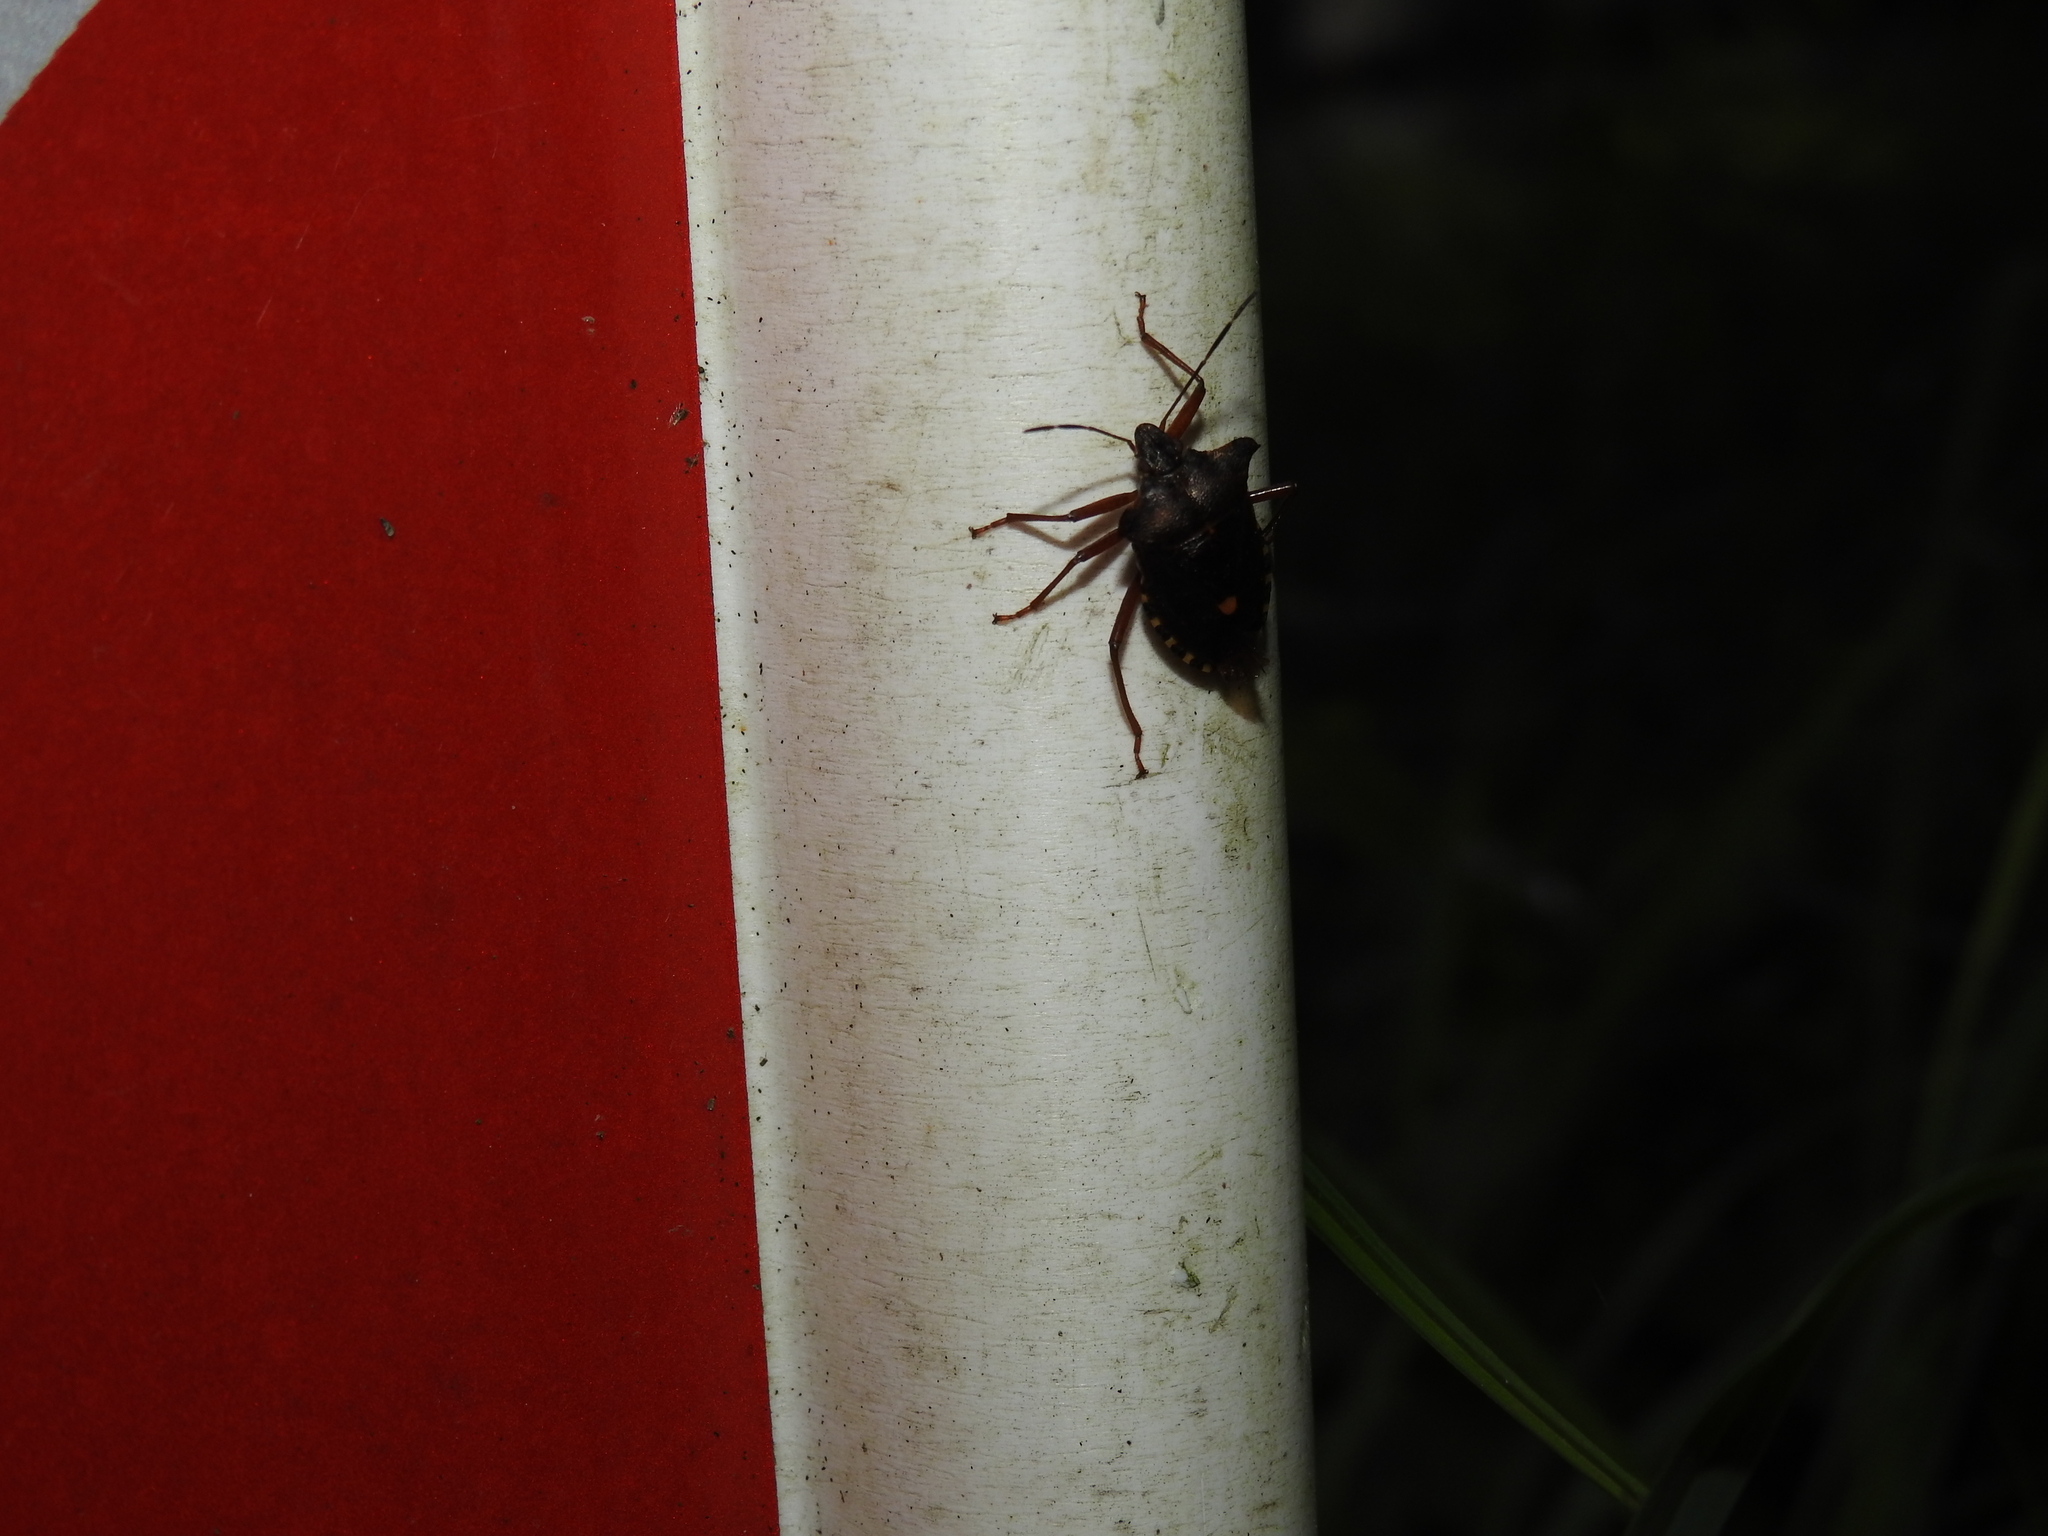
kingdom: Animalia
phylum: Arthropoda
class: Insecta
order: Hemiptera
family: Pentatomidae
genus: Pentatoma
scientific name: Pentatoma rufipes
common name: Forest bug
